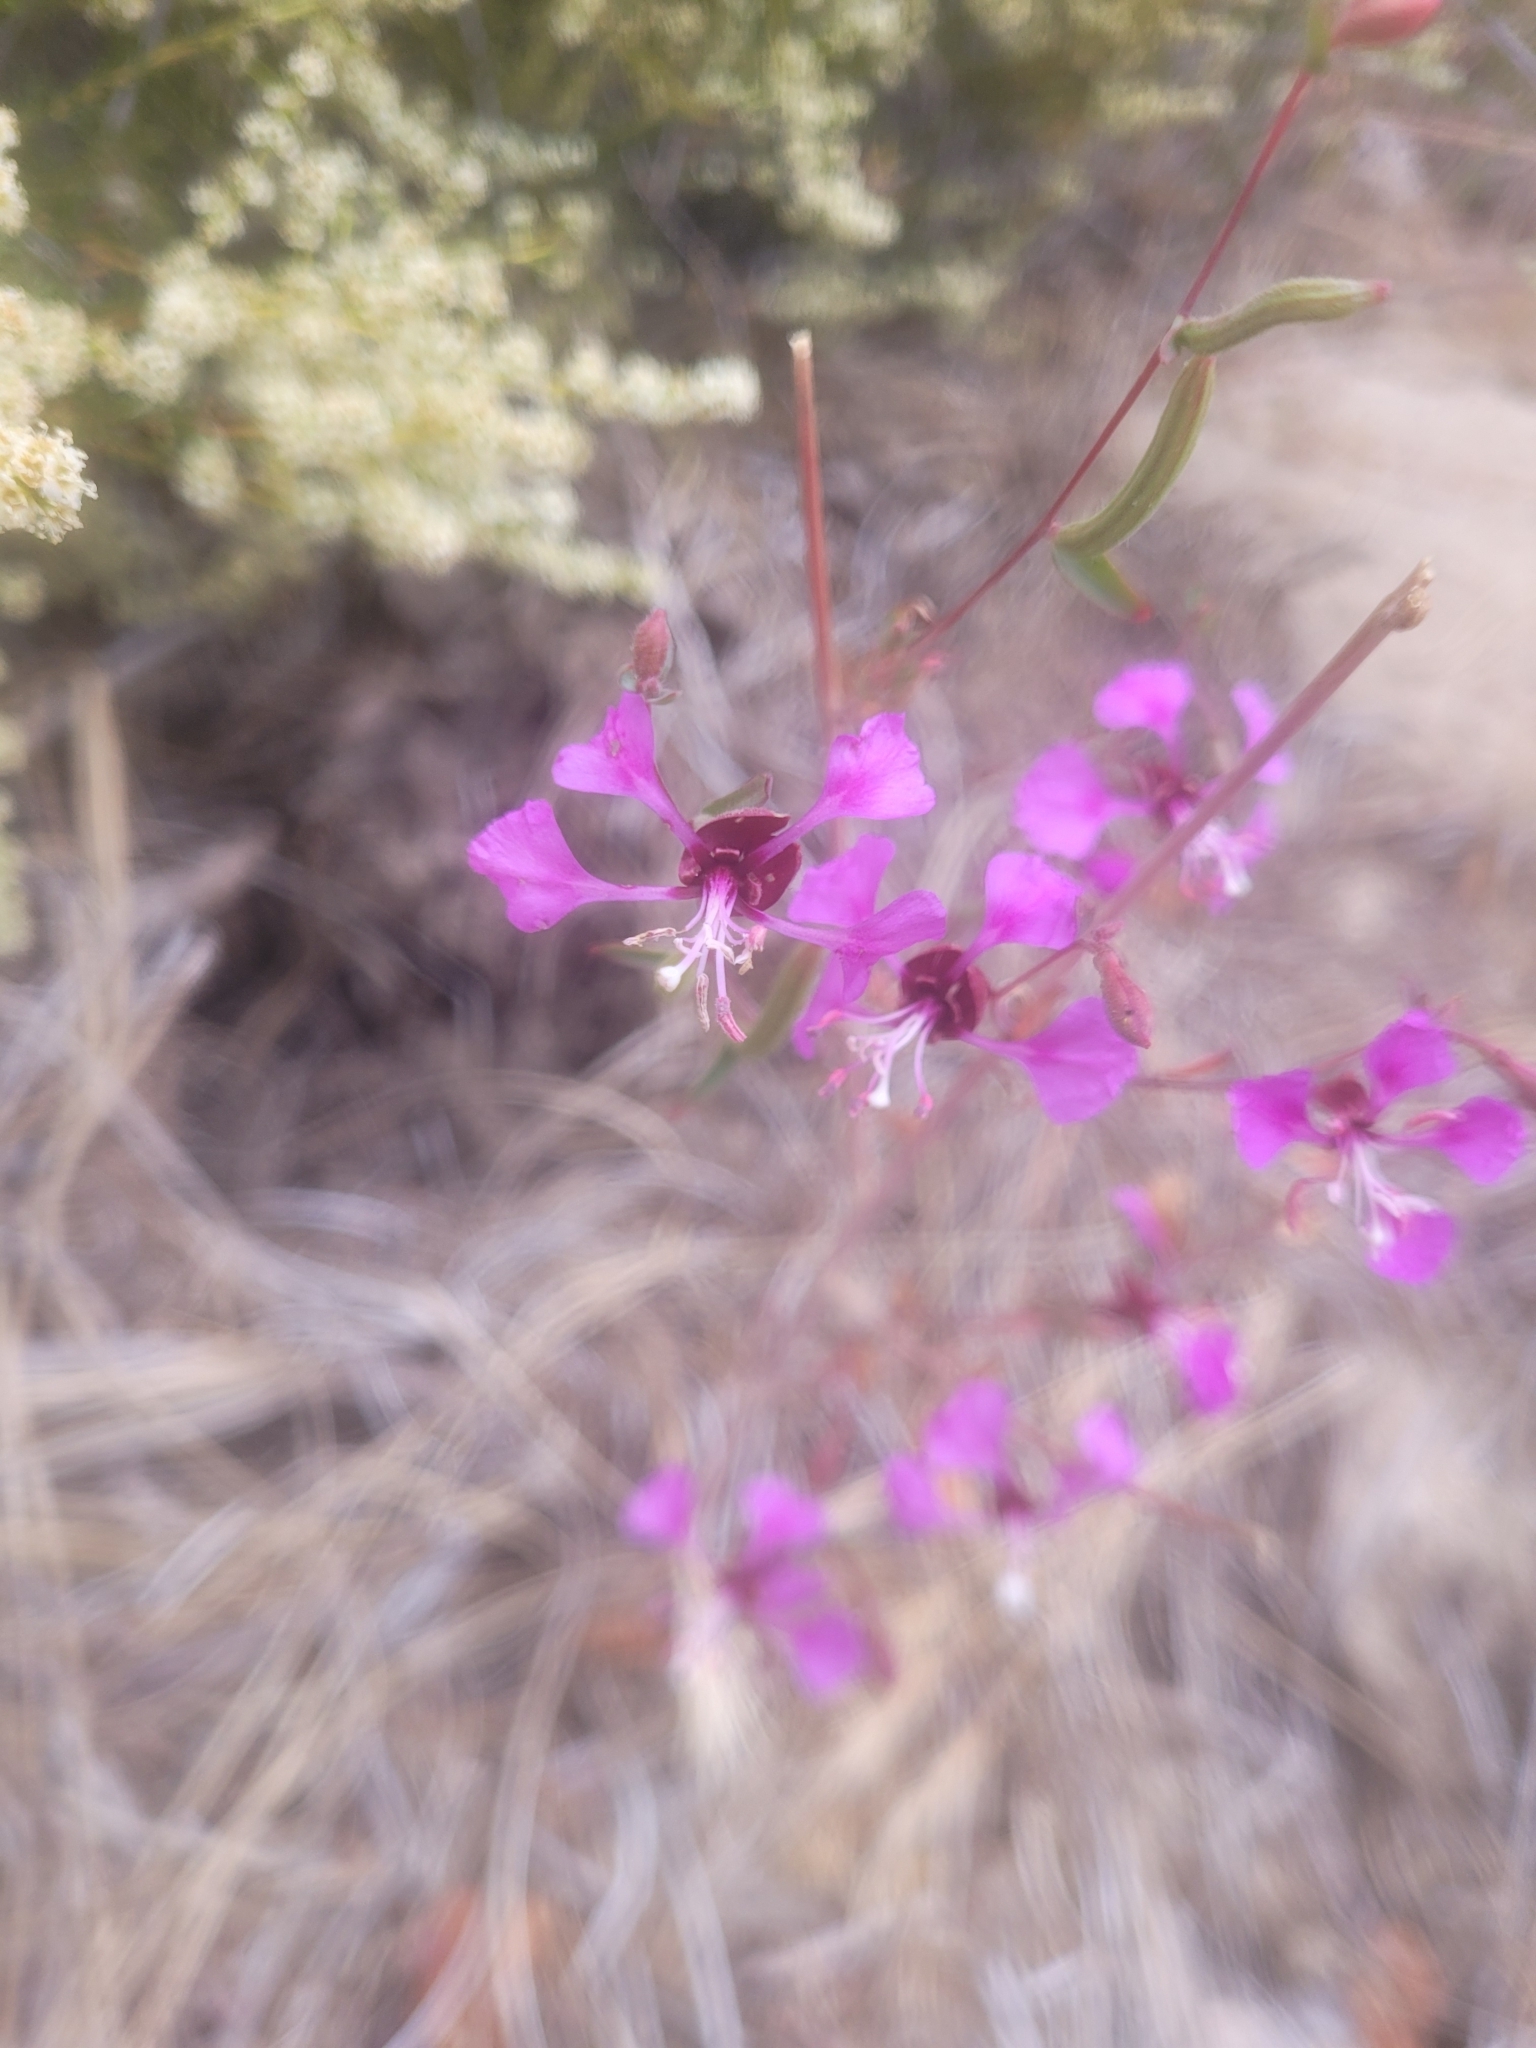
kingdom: Plantae
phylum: Tracheophyta
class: Magnoliopsida
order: Myrtales
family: Onagraceae
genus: Clarkia
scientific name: Clarkia unguiculata
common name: Clarkia
